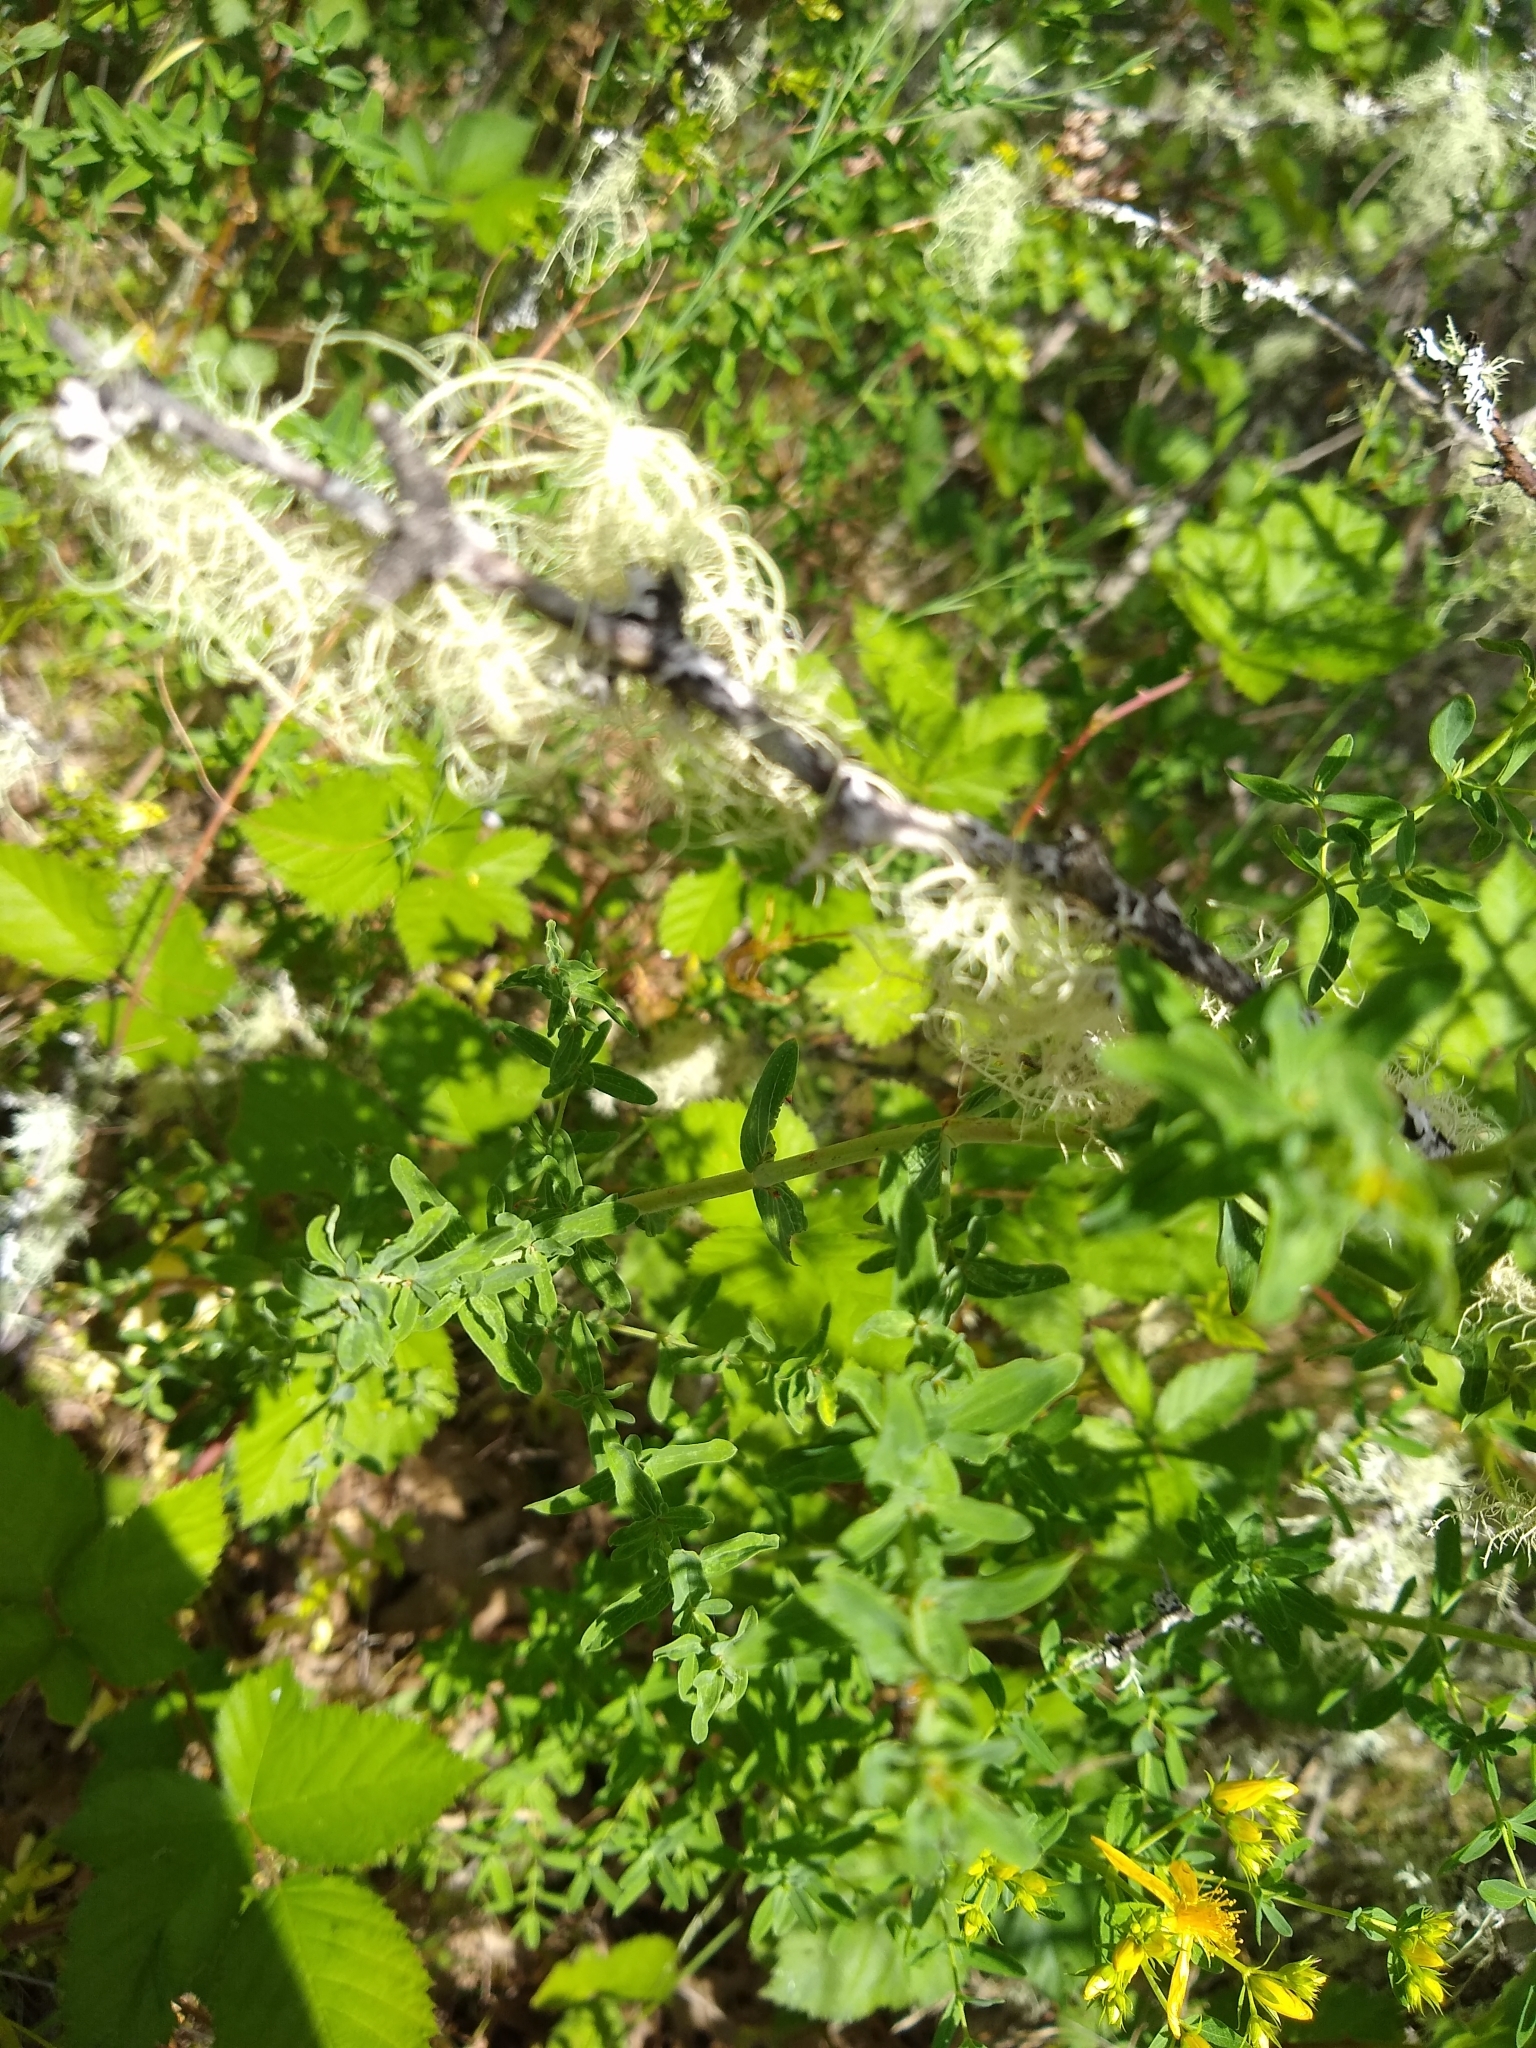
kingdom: Plantae
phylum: Tracheophyta
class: Magnoliopsida
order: Malpighiales
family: Hypericaceae
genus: Hypericum
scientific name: Hypericum perforatum
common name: Common st. johnswort
